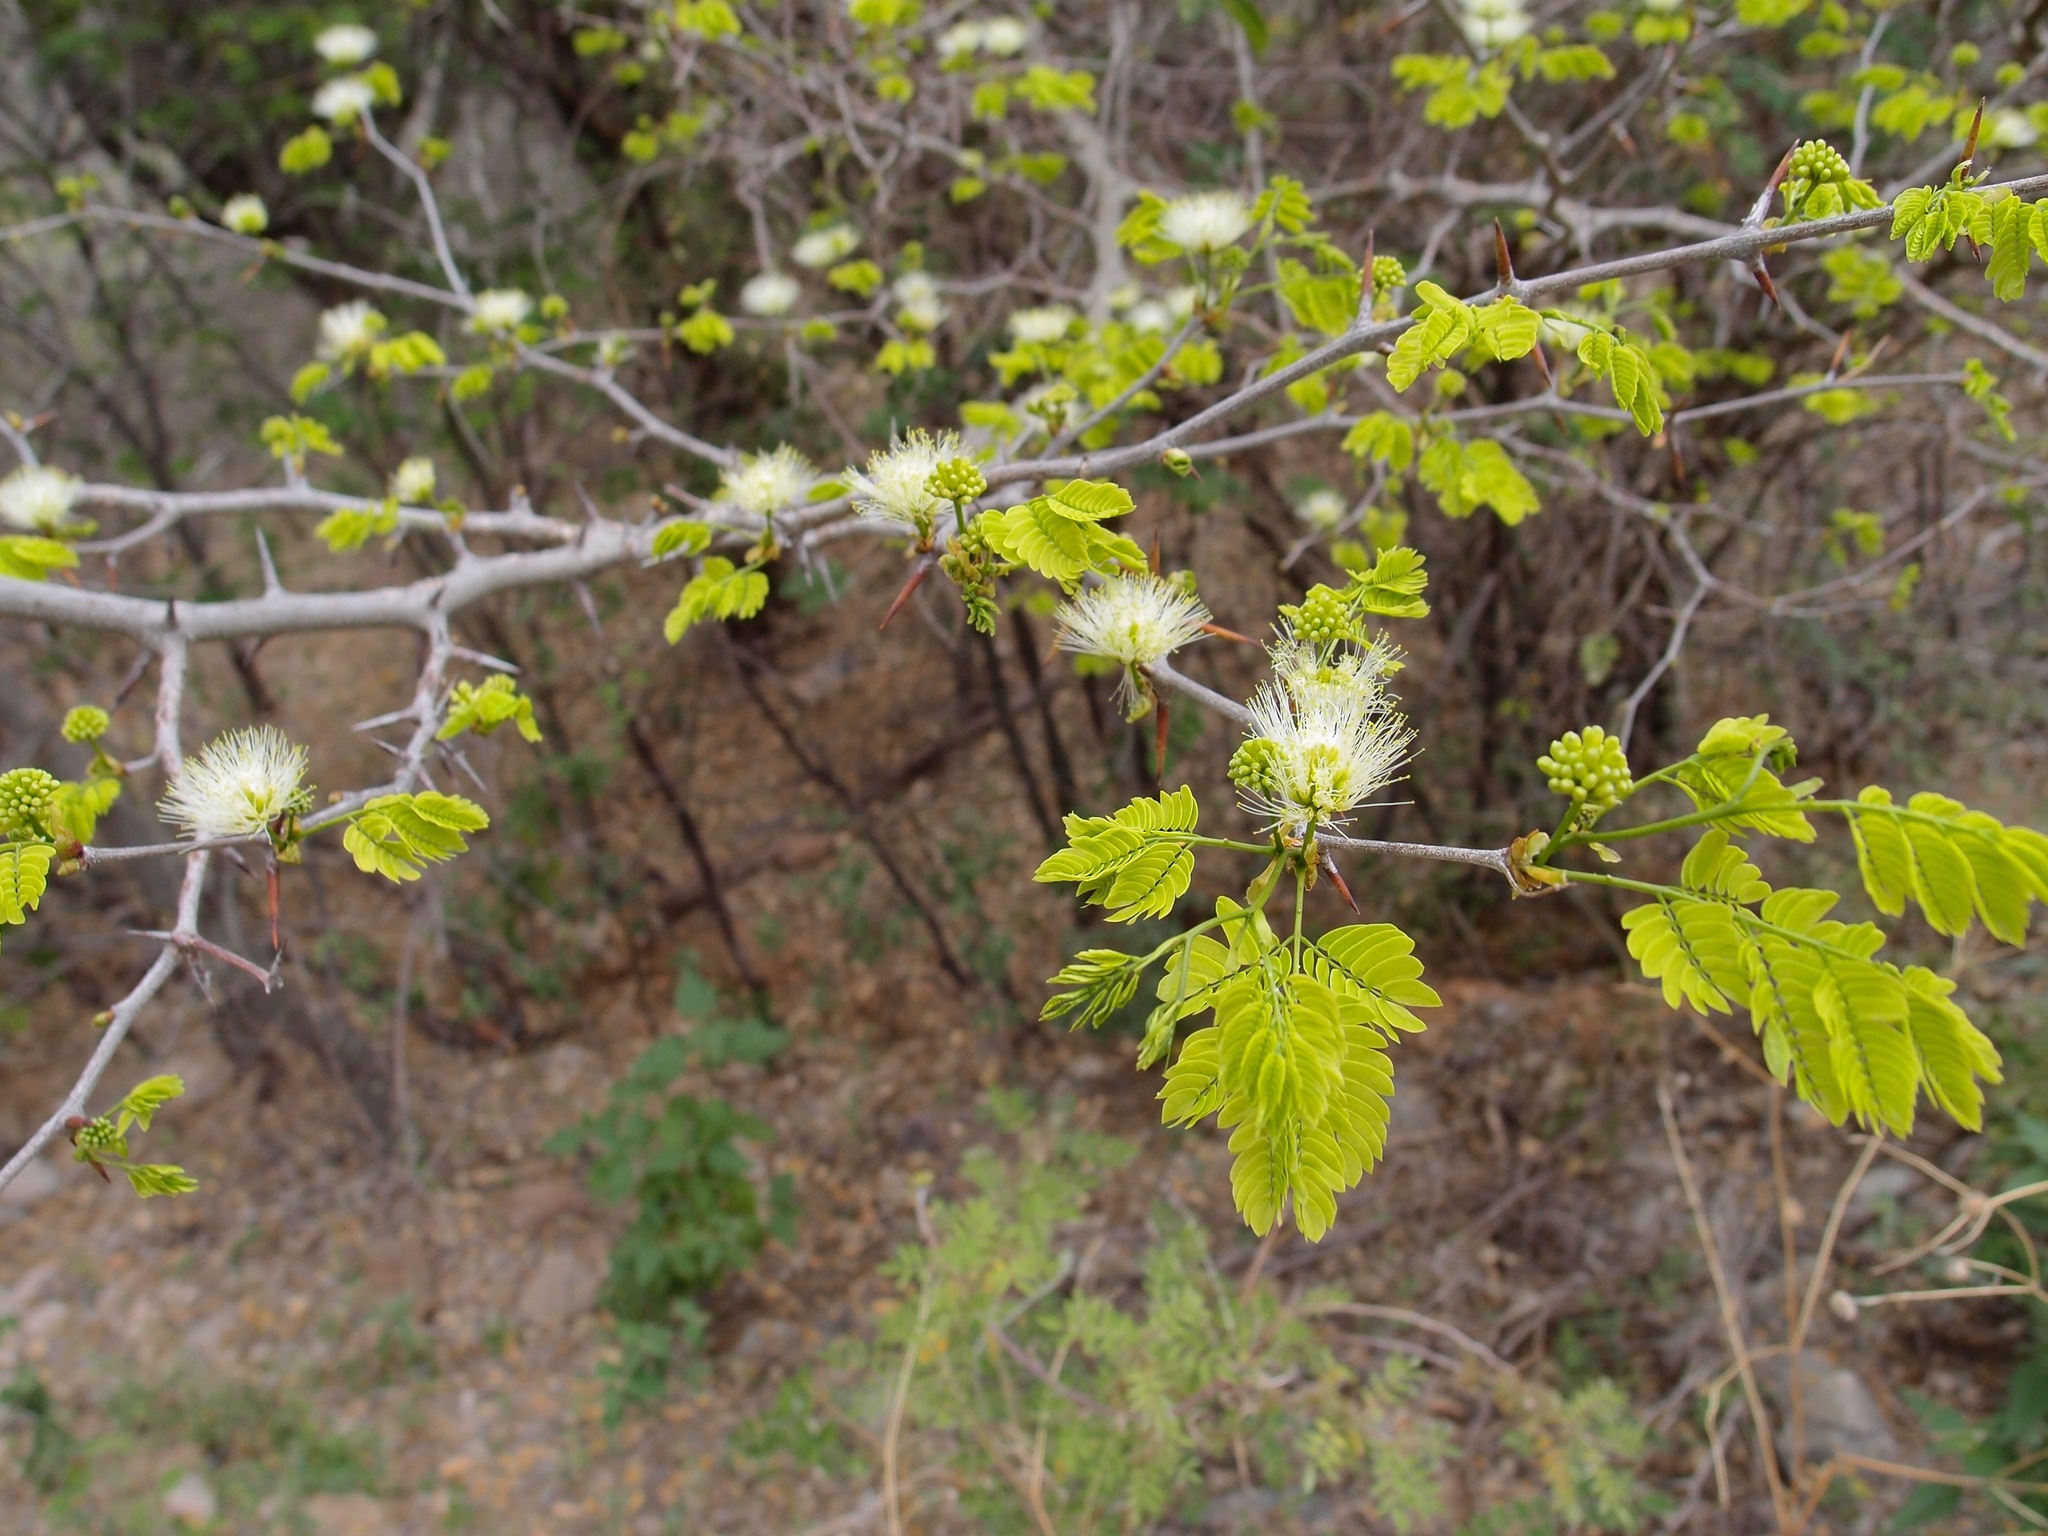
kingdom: Plantae
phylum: Tracheophyta
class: Magnoliopsida
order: Fabales
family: Fabaceae
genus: Chloroleucon
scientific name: Chloroleucon mangense
